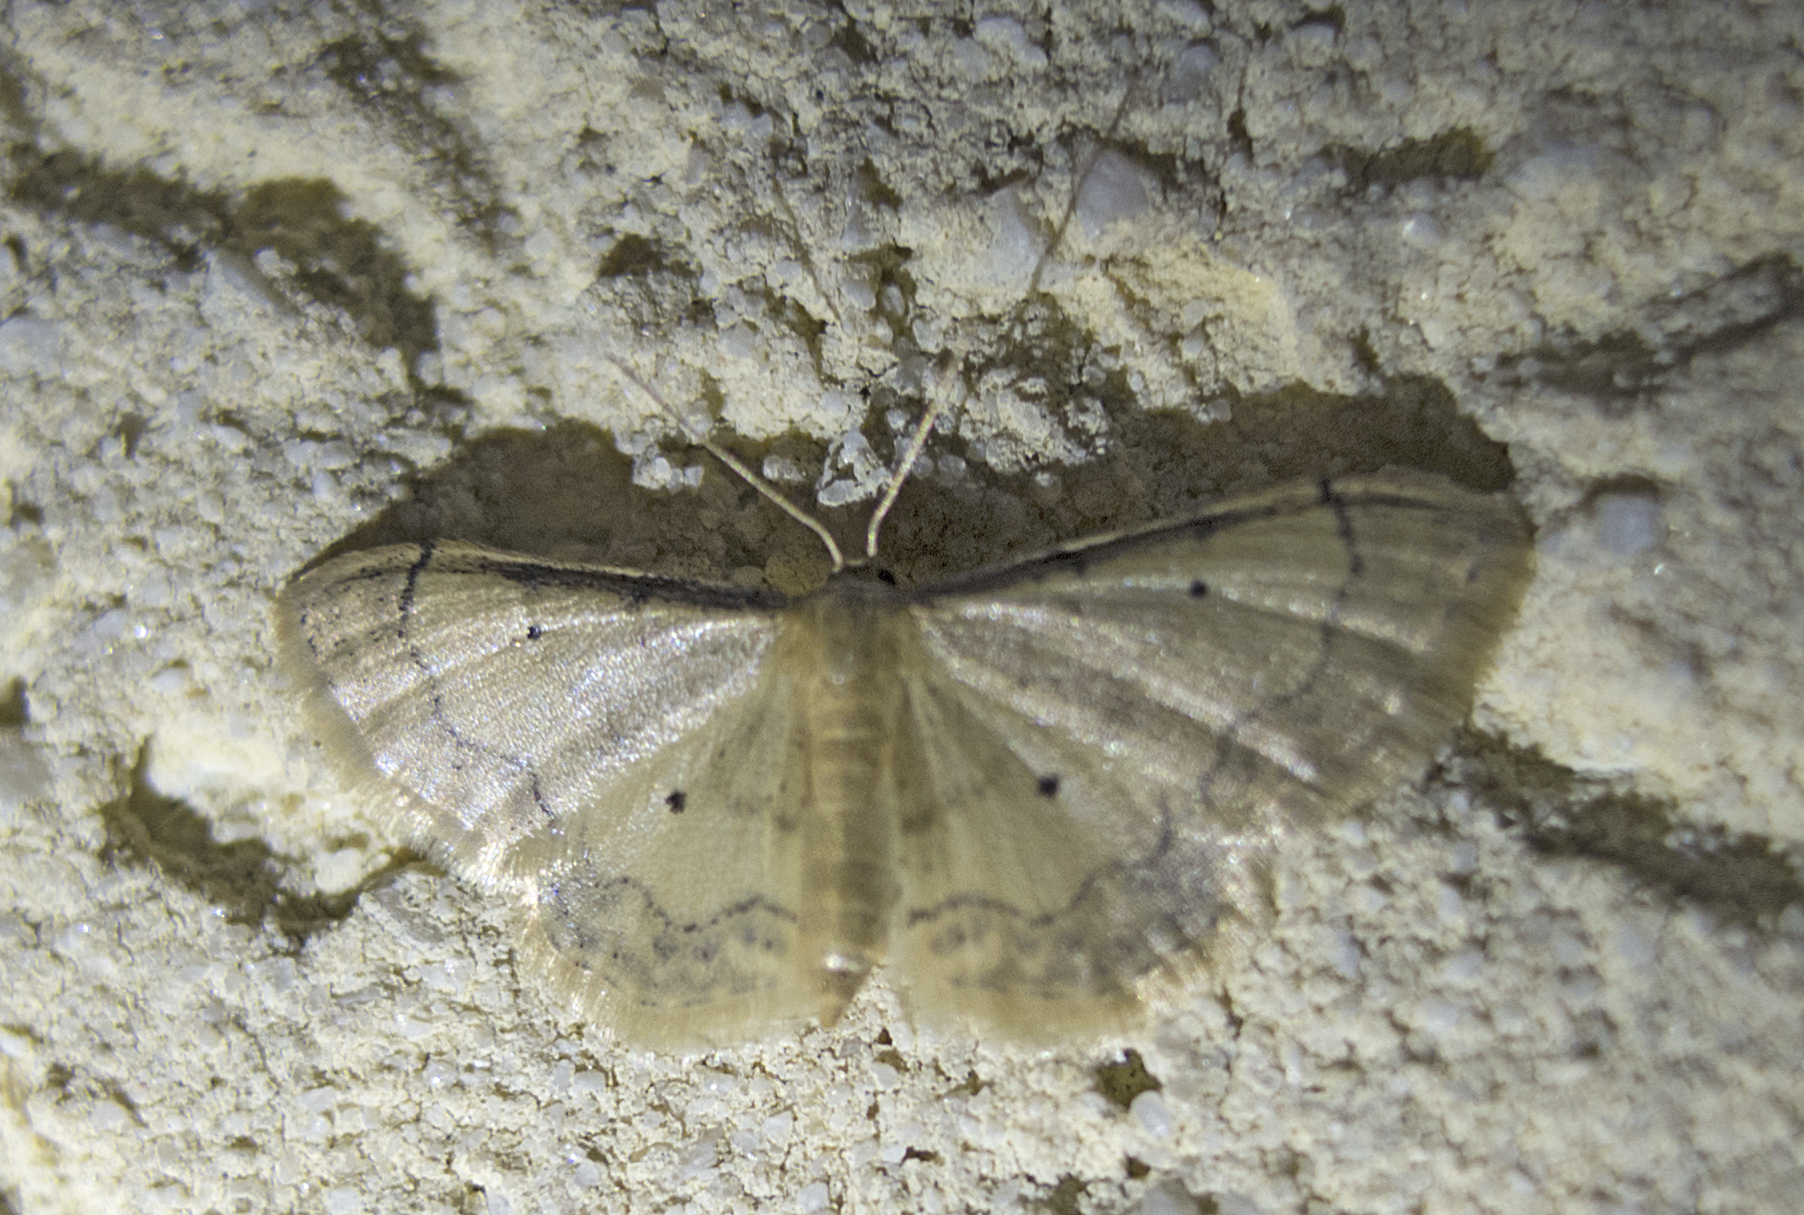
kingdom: Animalia
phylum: Arthropoda
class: Insecta
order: Lepidoptera
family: Geometridae
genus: Idaea
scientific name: Idaea politaria
